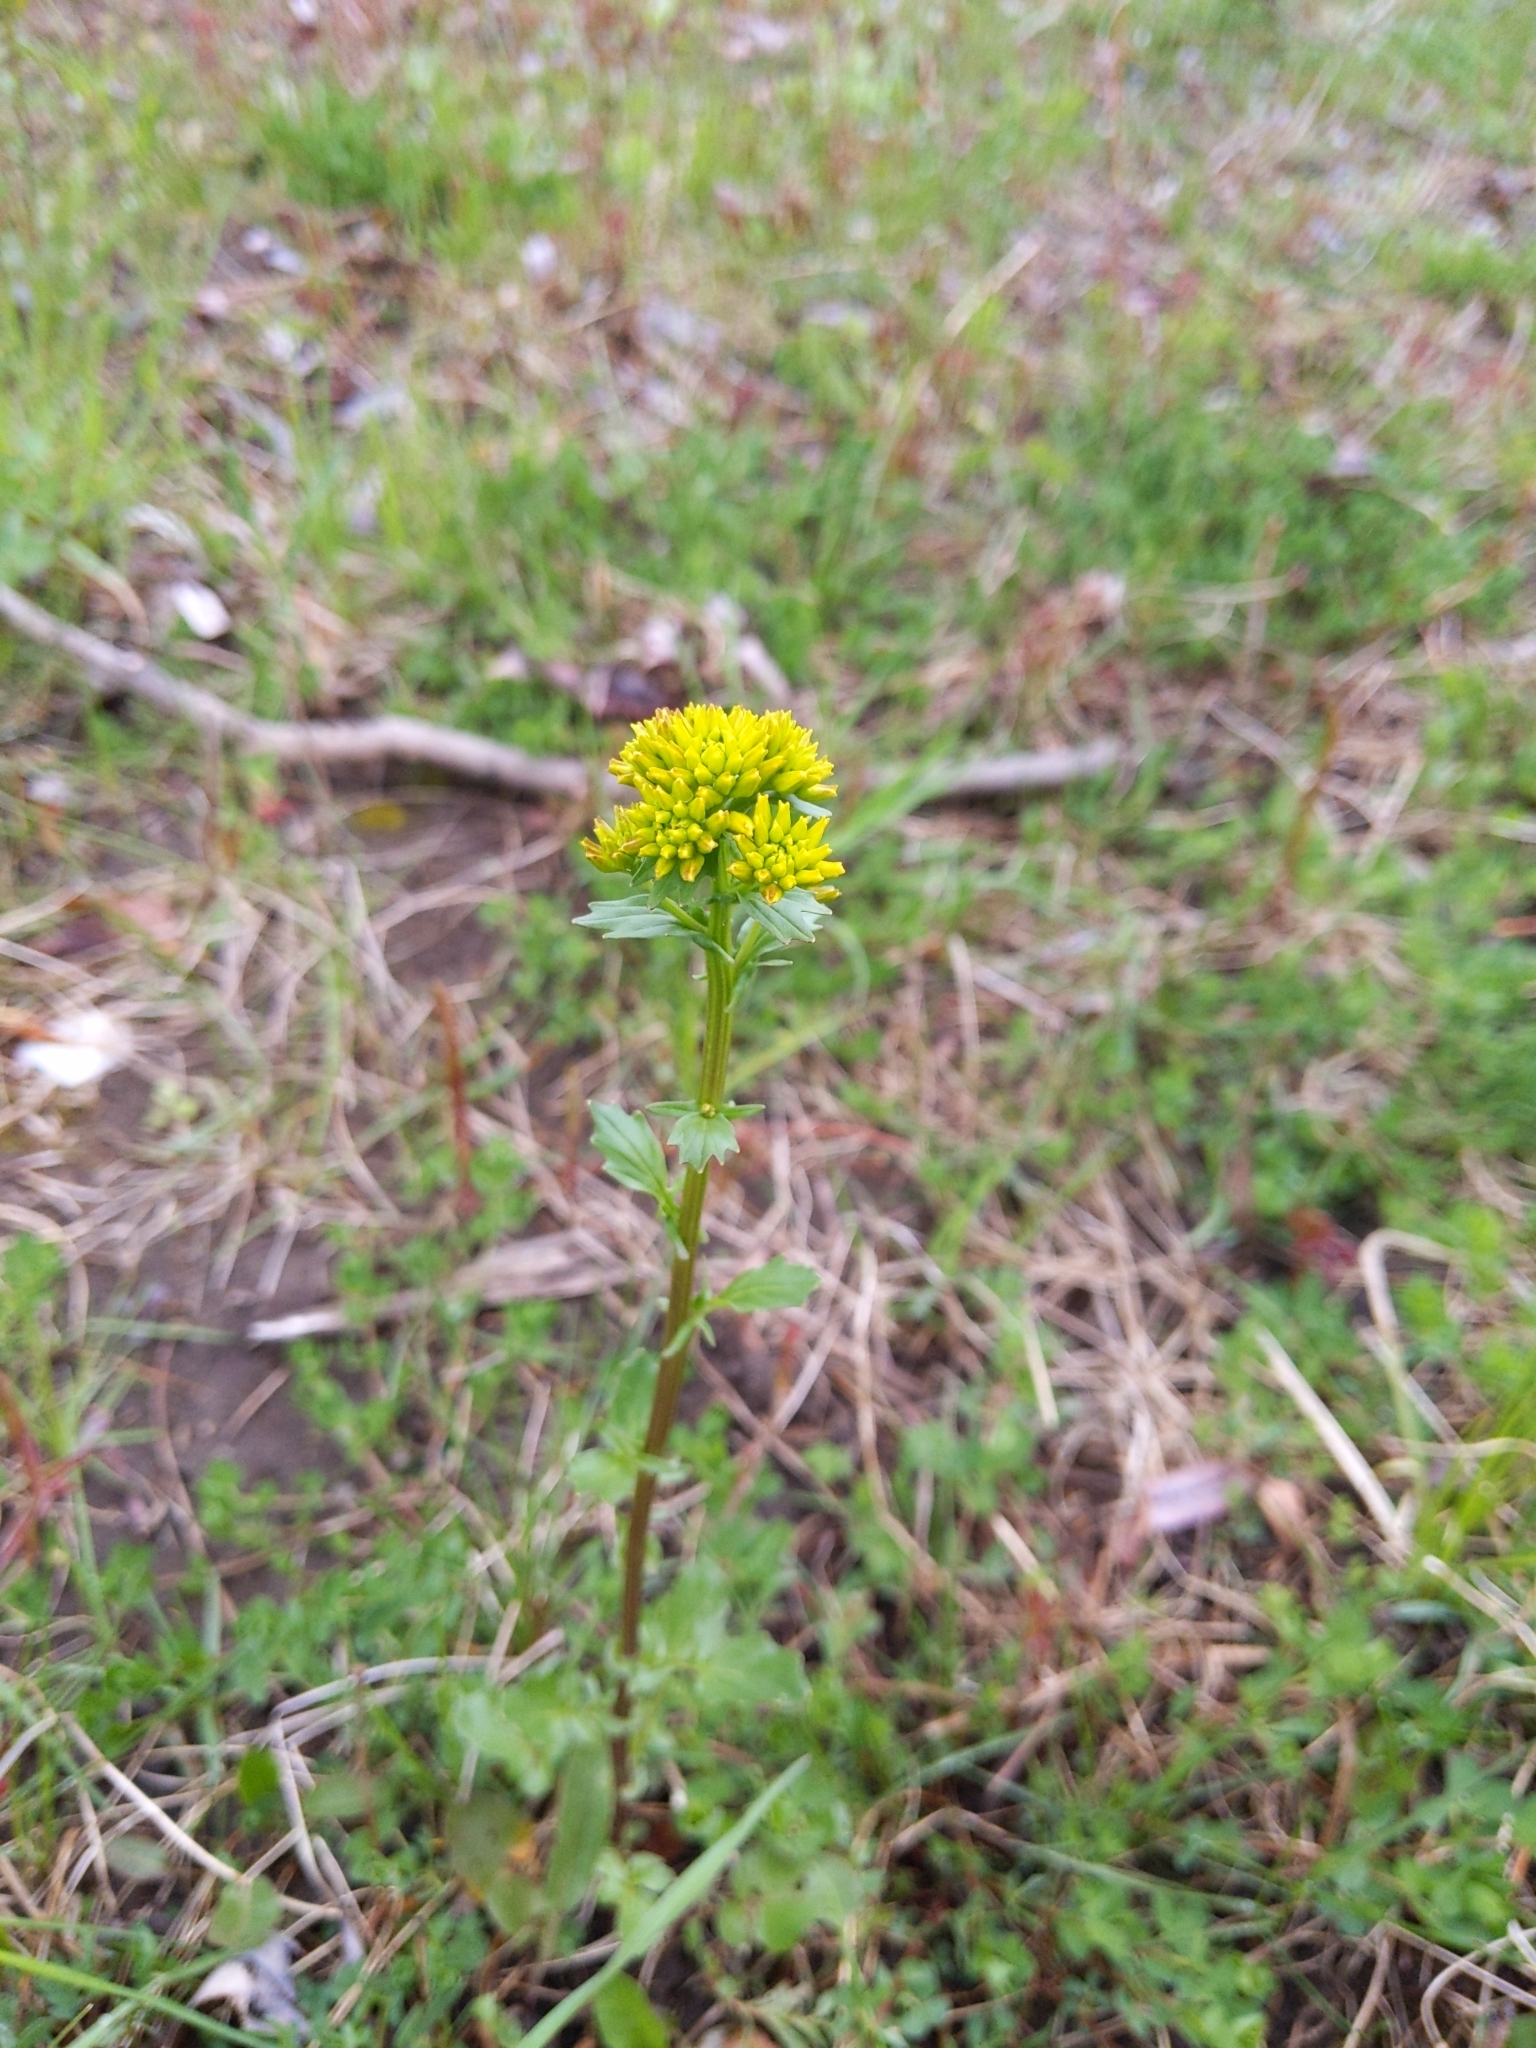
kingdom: Plantae
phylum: Tracheophyta
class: Magnoliopsida
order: Brassicales
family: Brassicaceae
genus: Barbarea
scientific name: Barbarea vulgaris
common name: Cressy-greens
